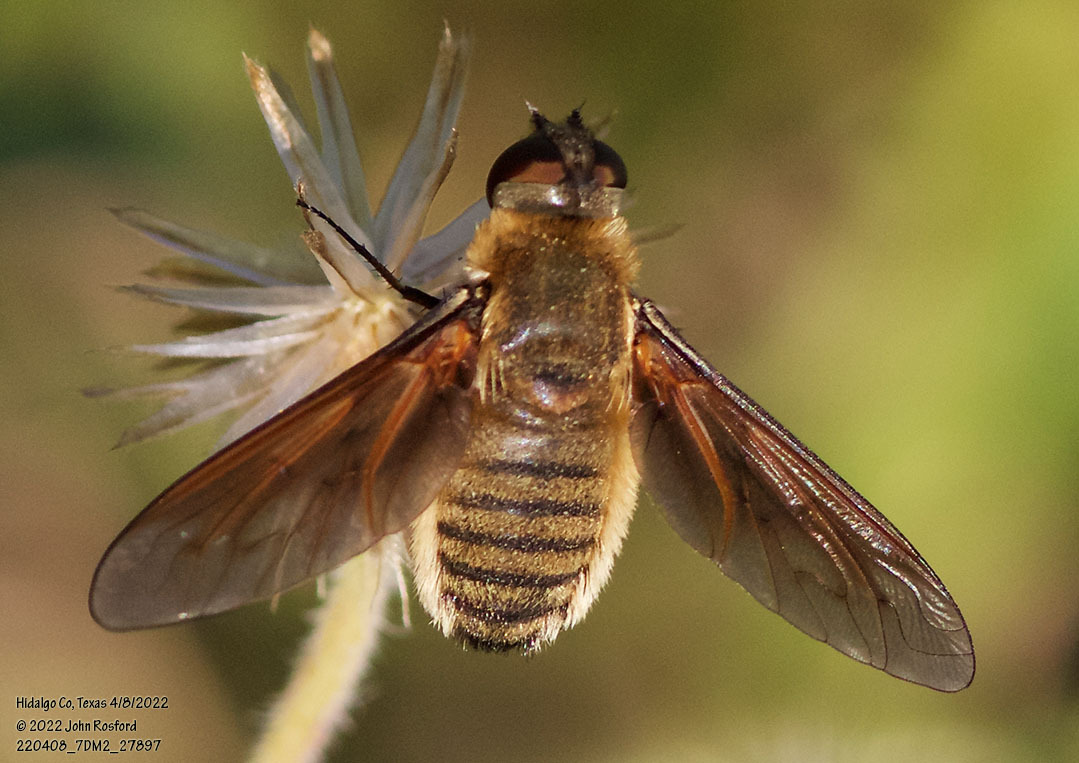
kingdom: Animalia
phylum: Arthropoda
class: Insecta
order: Diptera
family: Bombyliidae
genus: Poecilanthrax
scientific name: Poecilanthrax lucifer
